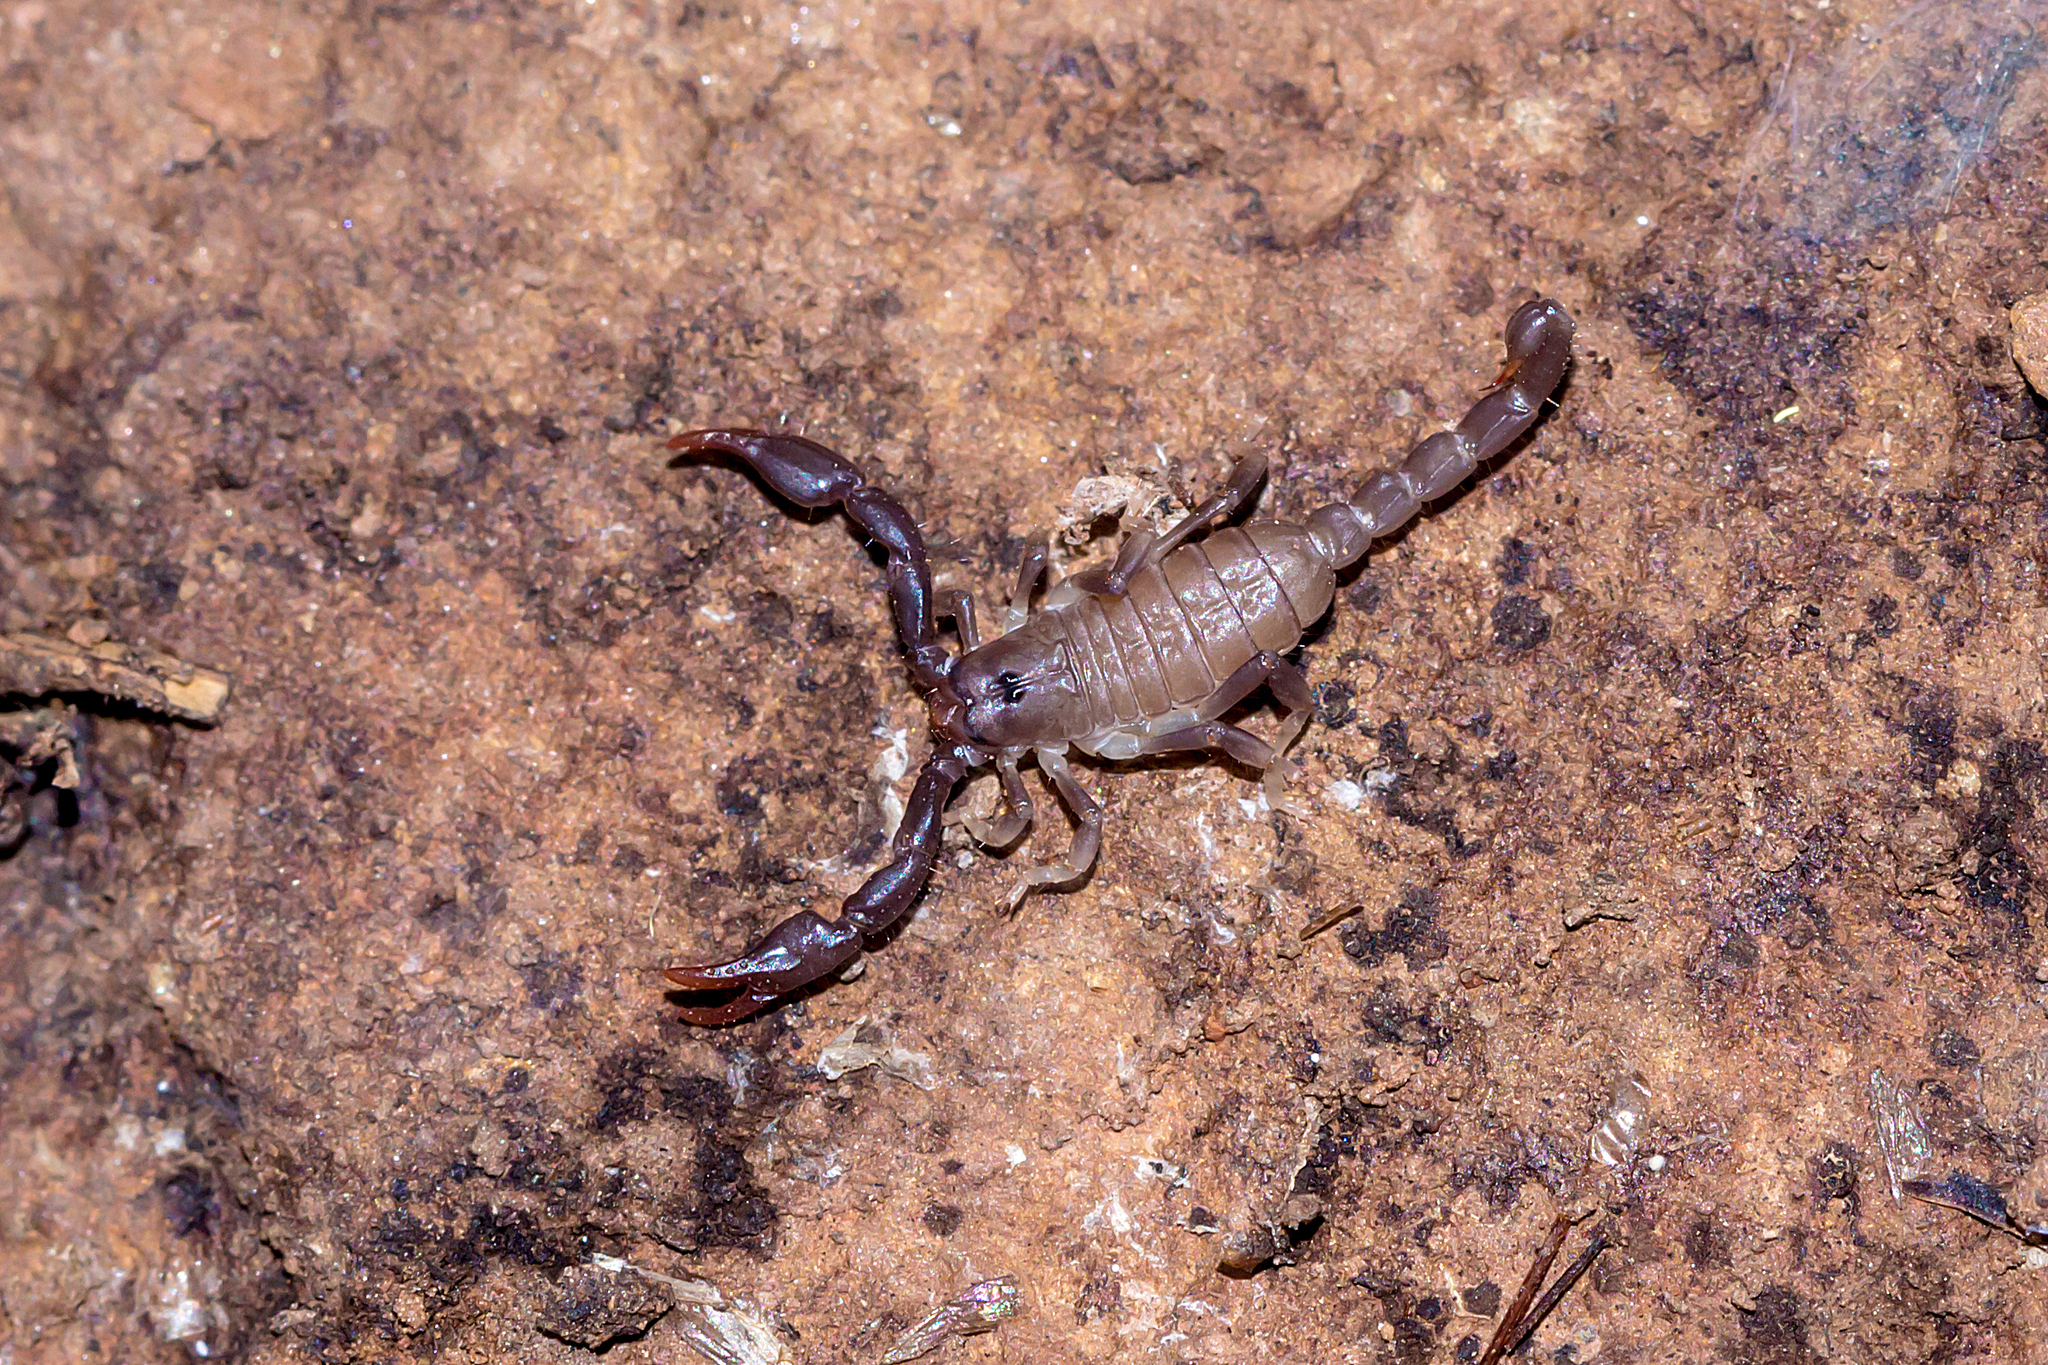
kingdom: Animalia
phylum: Arthropoda
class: Arachnida
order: Scorpiones
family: Scorpionidae
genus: Urodacus
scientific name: Urodacus manicatus
